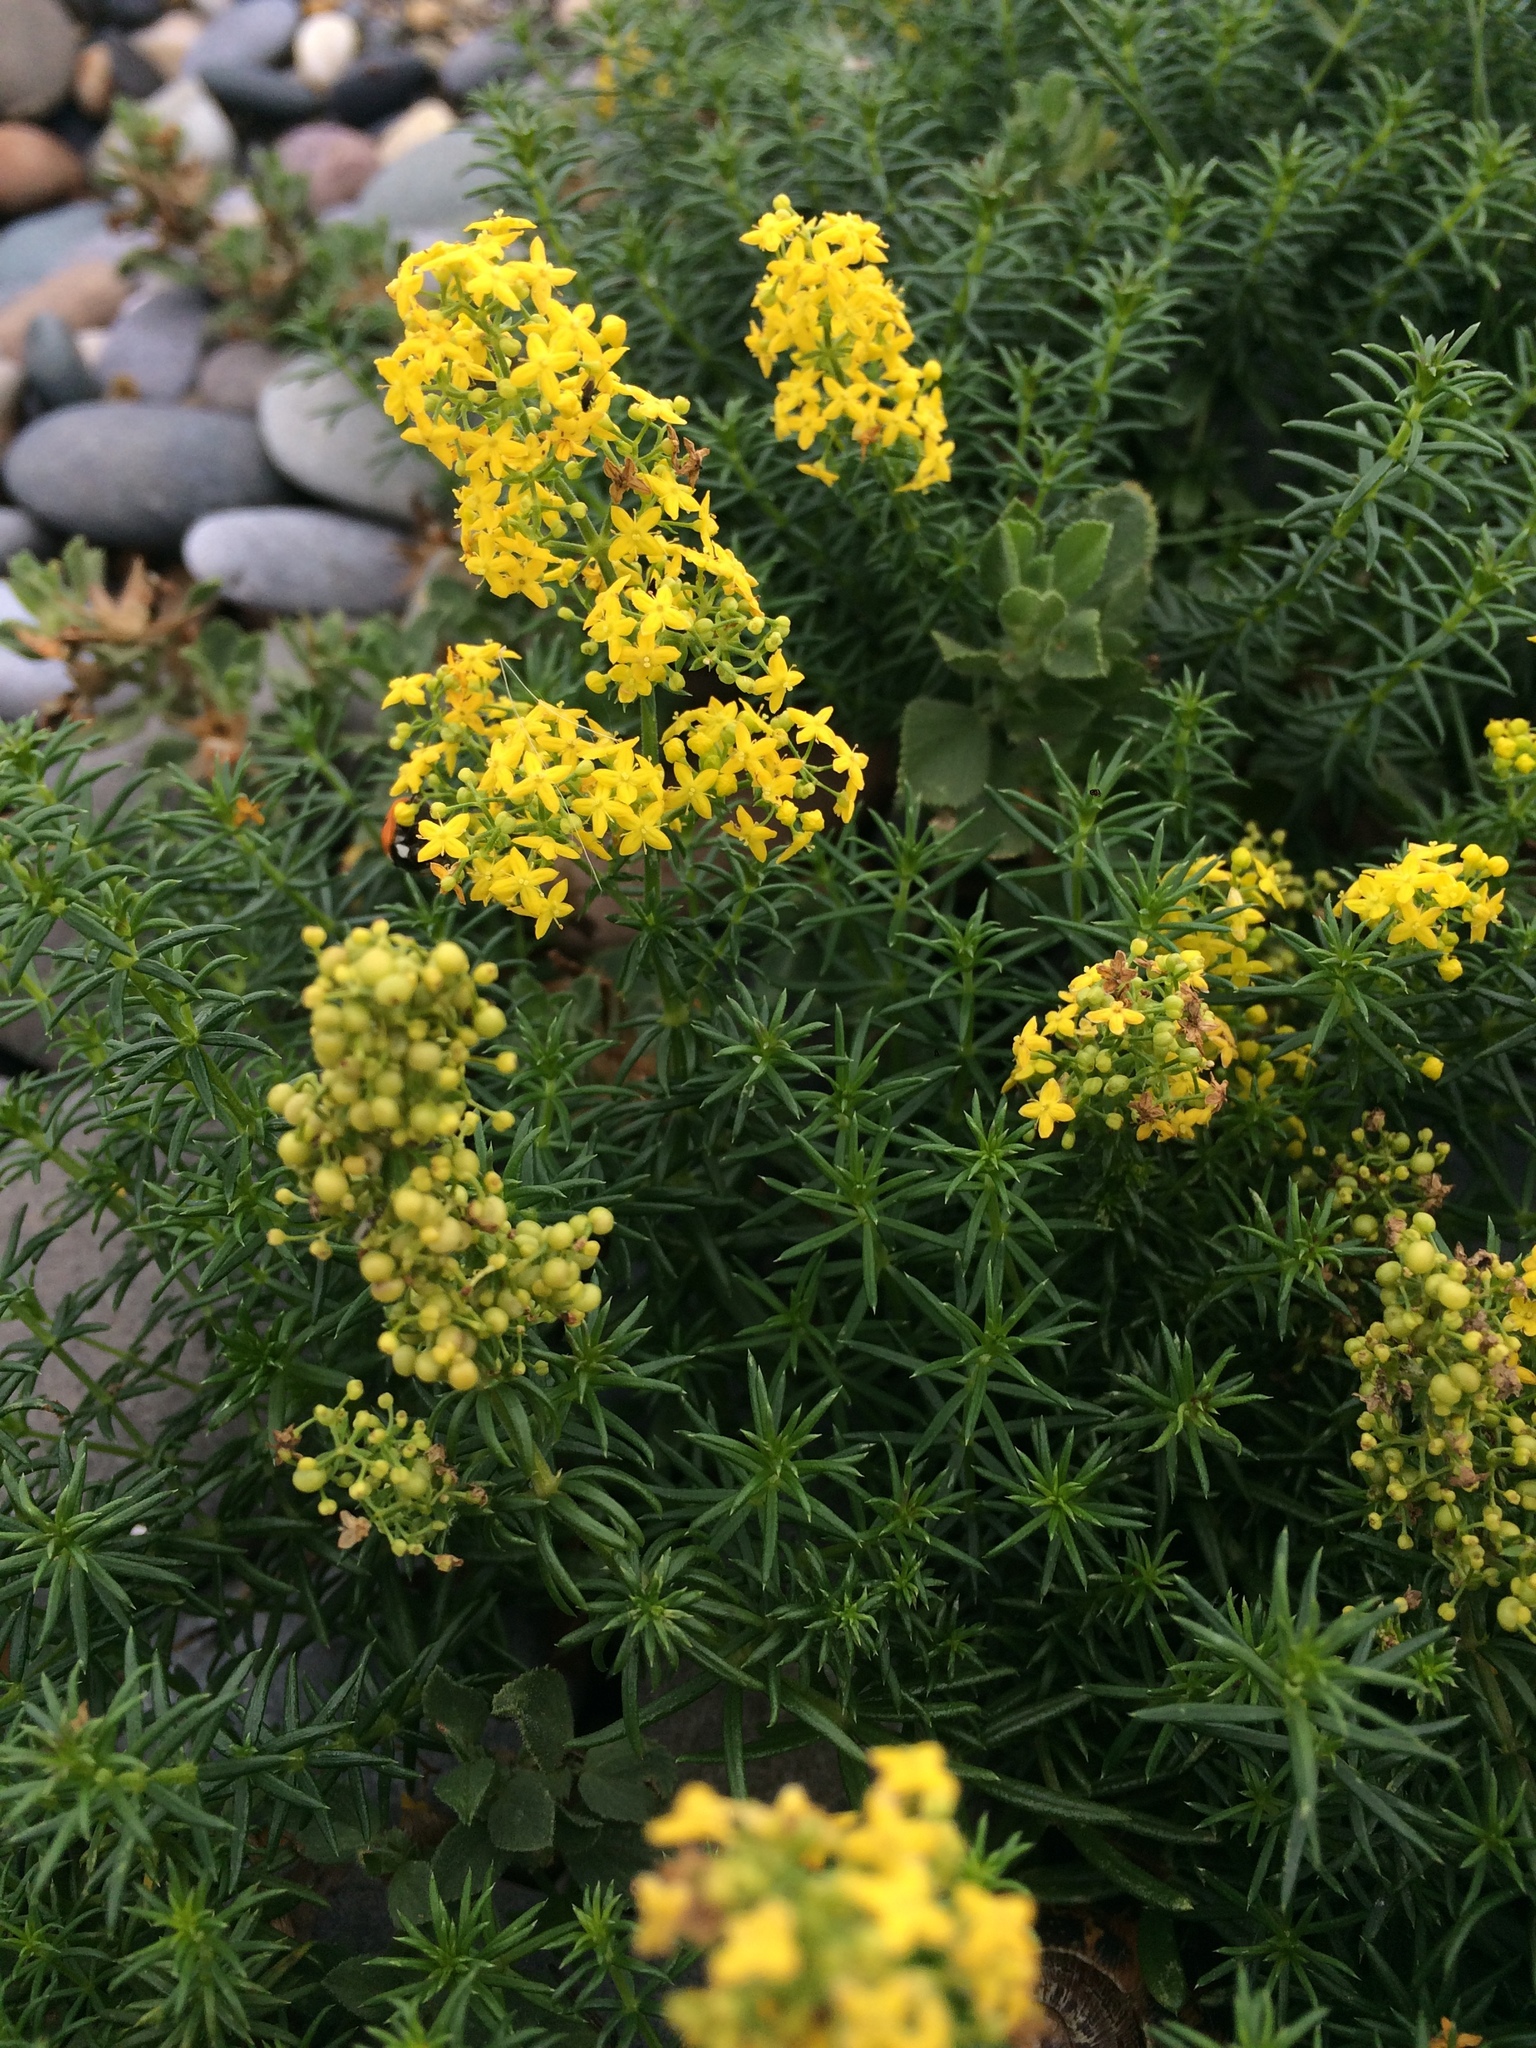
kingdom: Plantae
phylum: Tracheophyta
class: Magnoliopsida
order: Gentianales
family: Rubiaceae
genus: Galium
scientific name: Galium verum
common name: Lady's bedstraw
